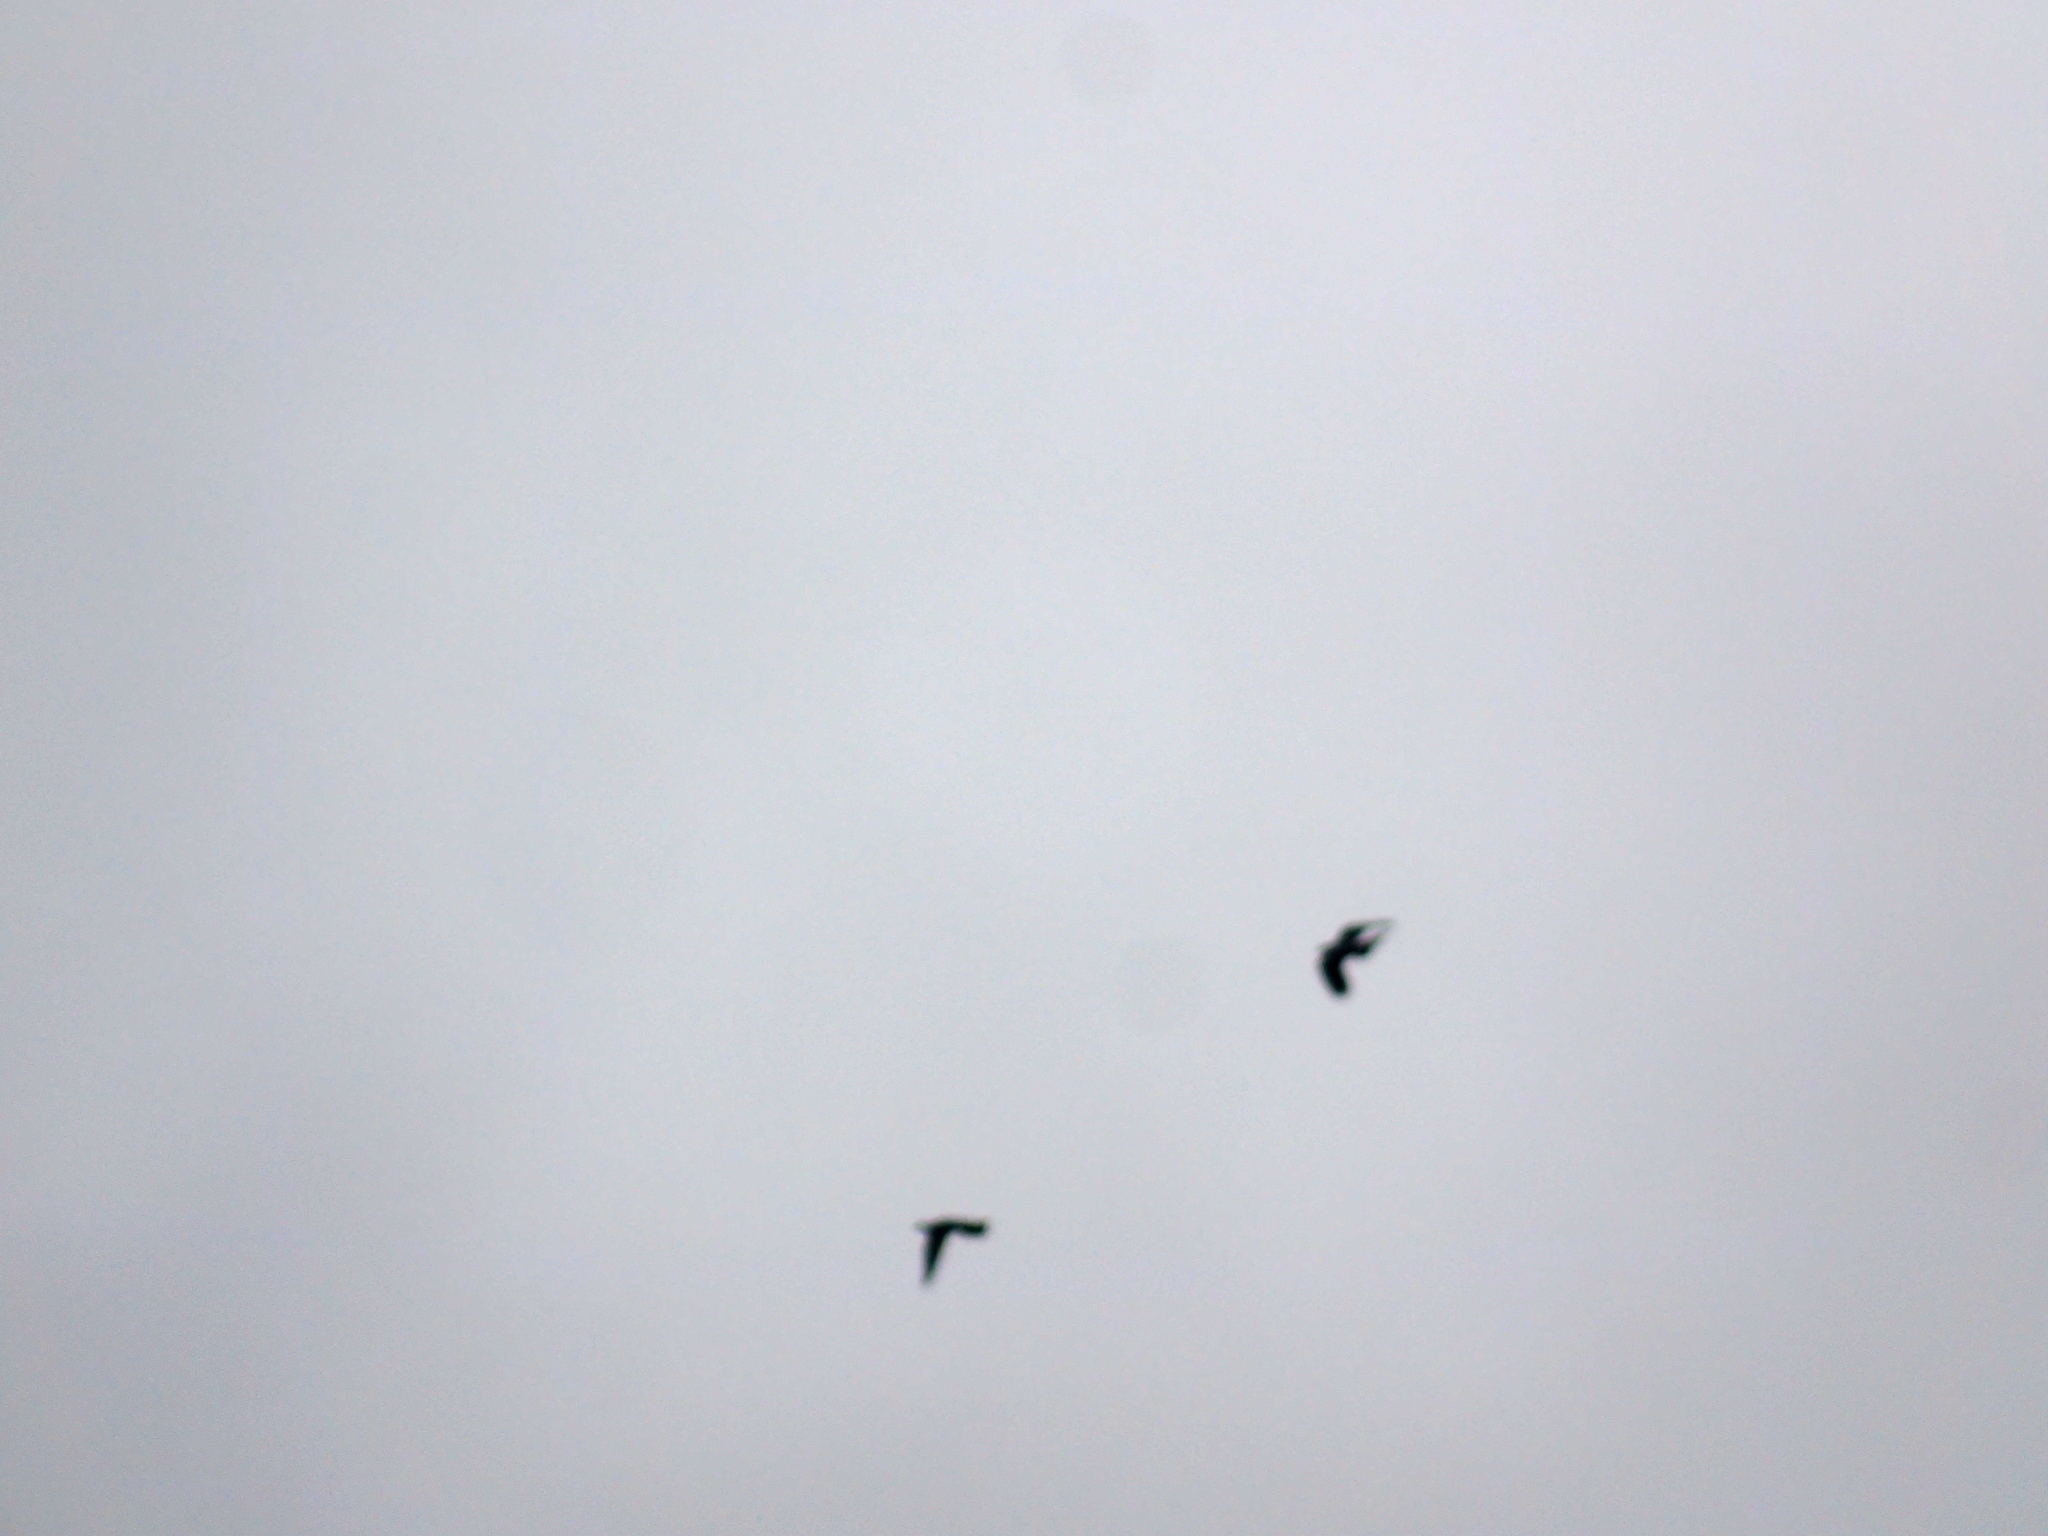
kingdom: Animalia
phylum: Chordata
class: Aves
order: Columbiformes
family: Columbidae
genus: Hemiphaga
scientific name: Hemiphaga novaeseelandiae
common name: New zealand pigeon
